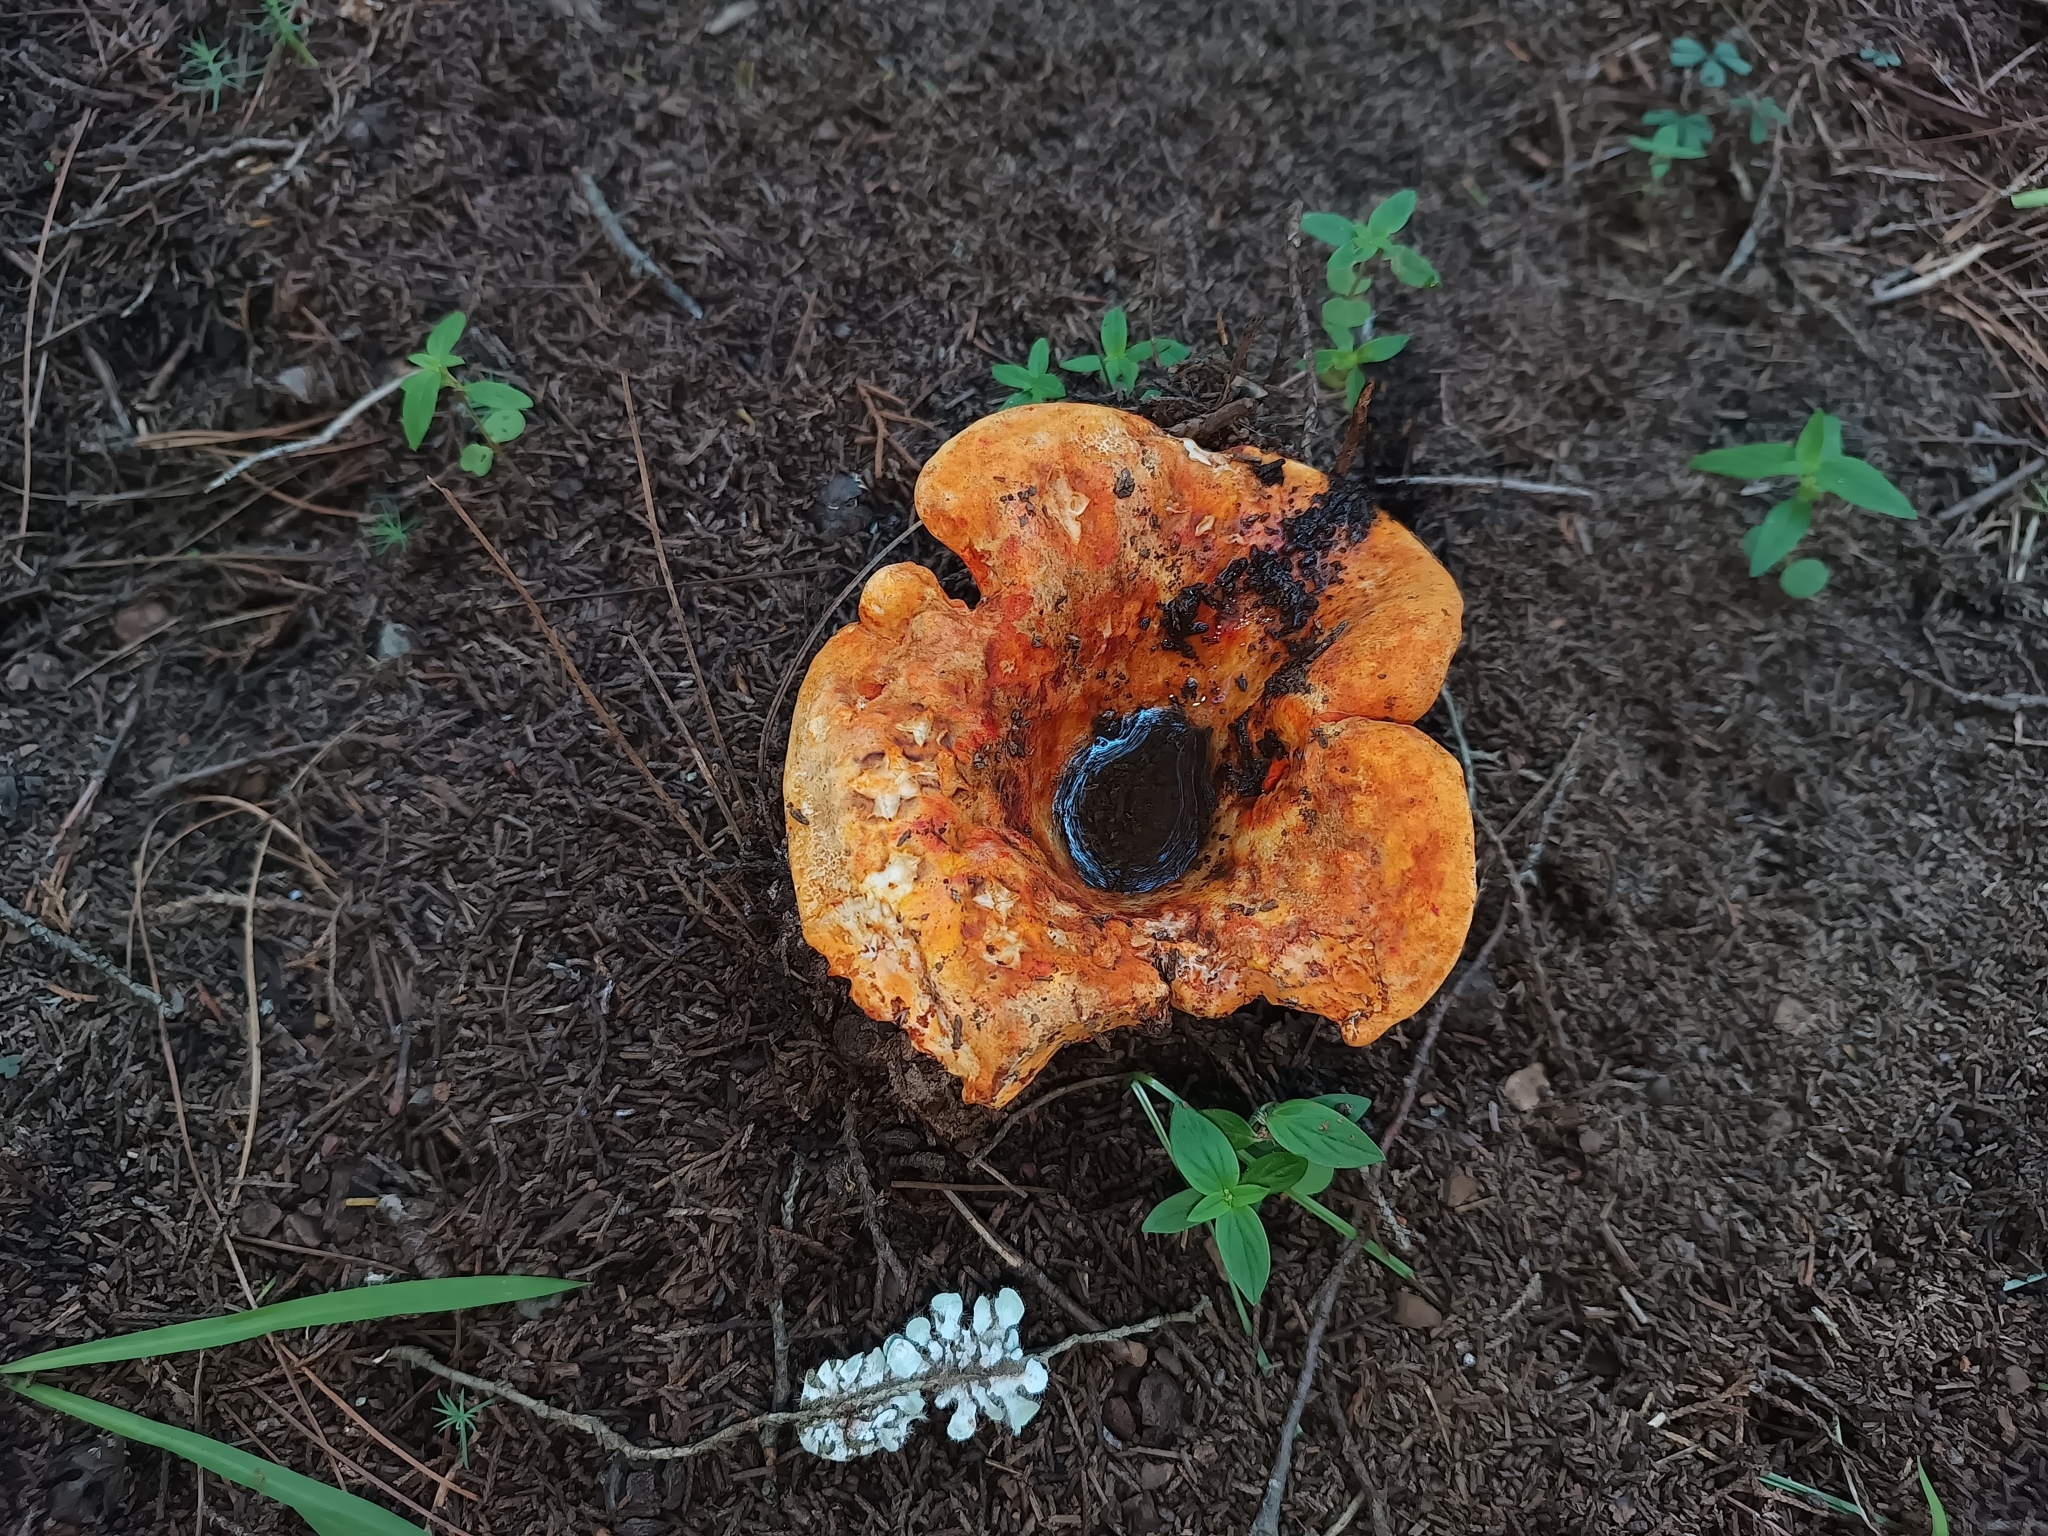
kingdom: Fungi
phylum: Ascomycota
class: Sordariomycetes
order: Hypocreales
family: Hypocreaceae
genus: Hypomyces
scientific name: Hypomyces lactifluorum
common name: Lobster mushroom
